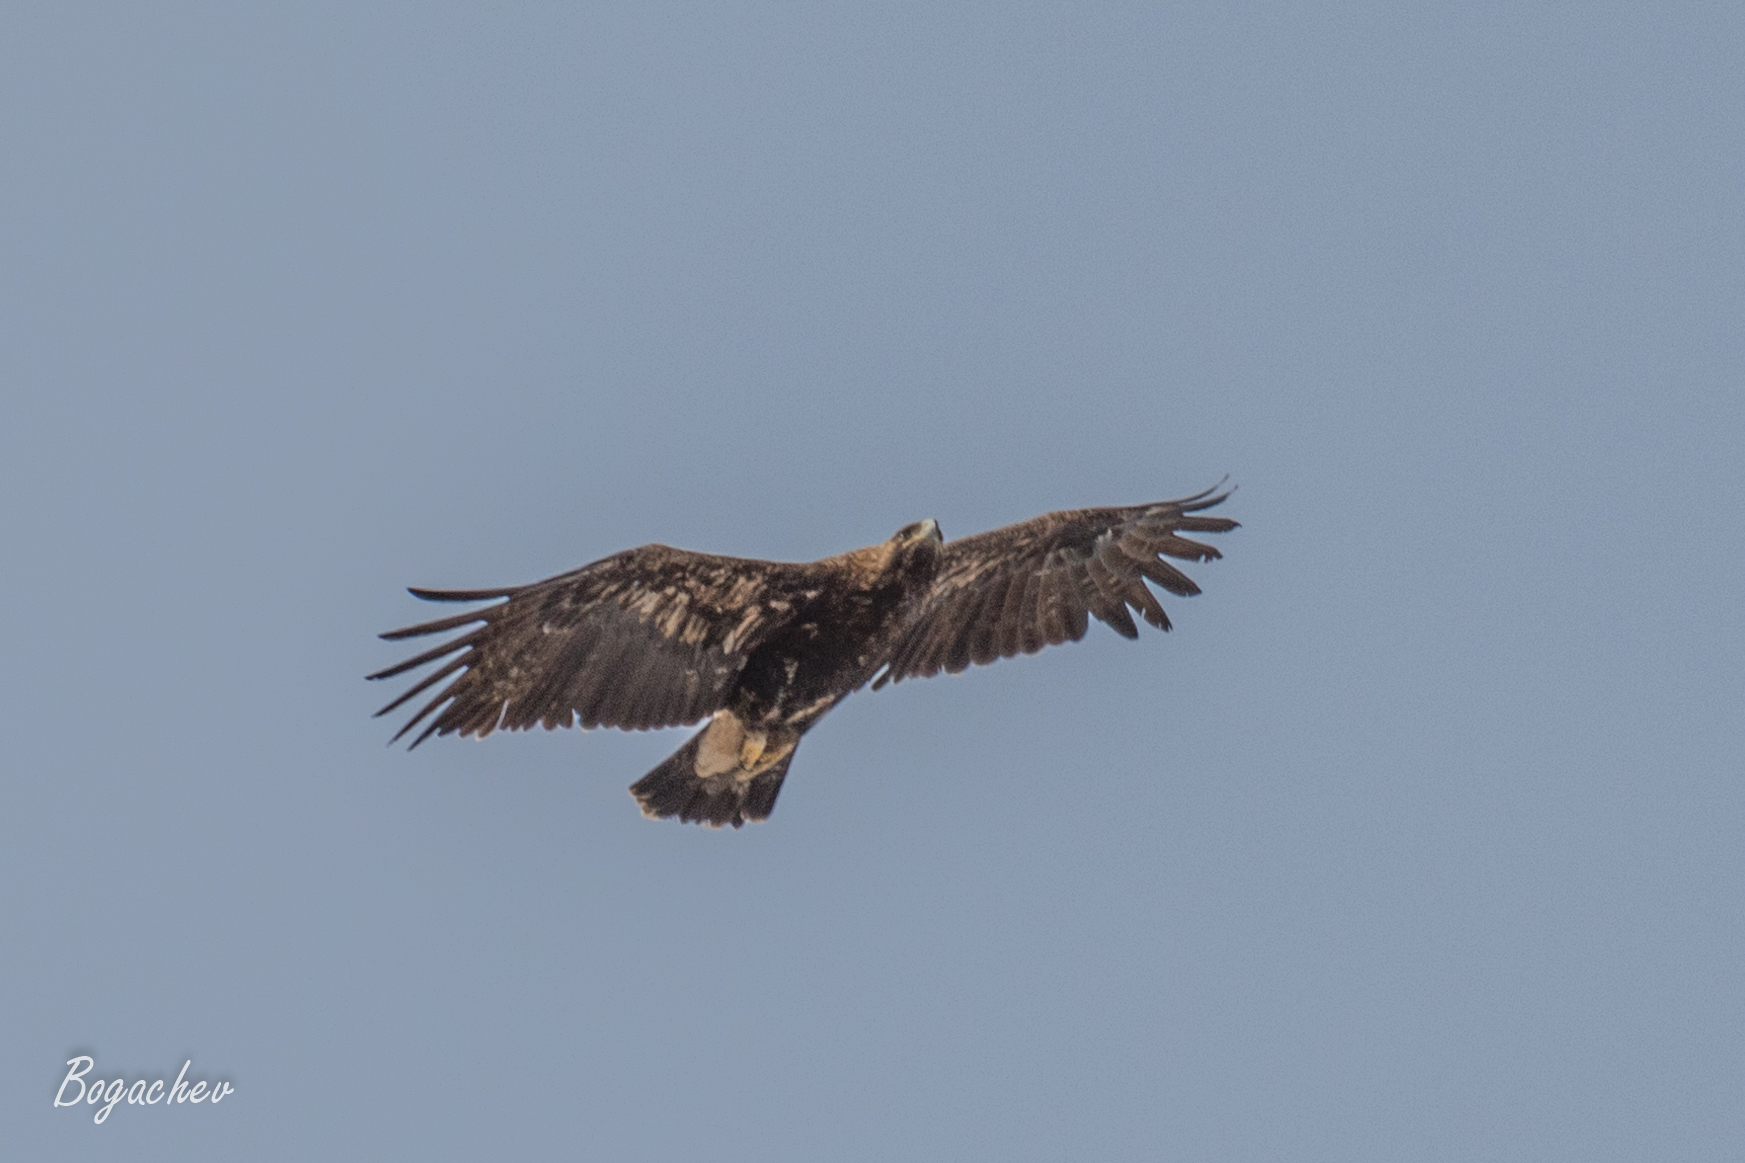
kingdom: Animalia
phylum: Chordata
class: Aves
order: Accipitriformes
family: Accipitridae
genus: Aquila
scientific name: Aquila heliaca
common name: Eastern imperial eagle
